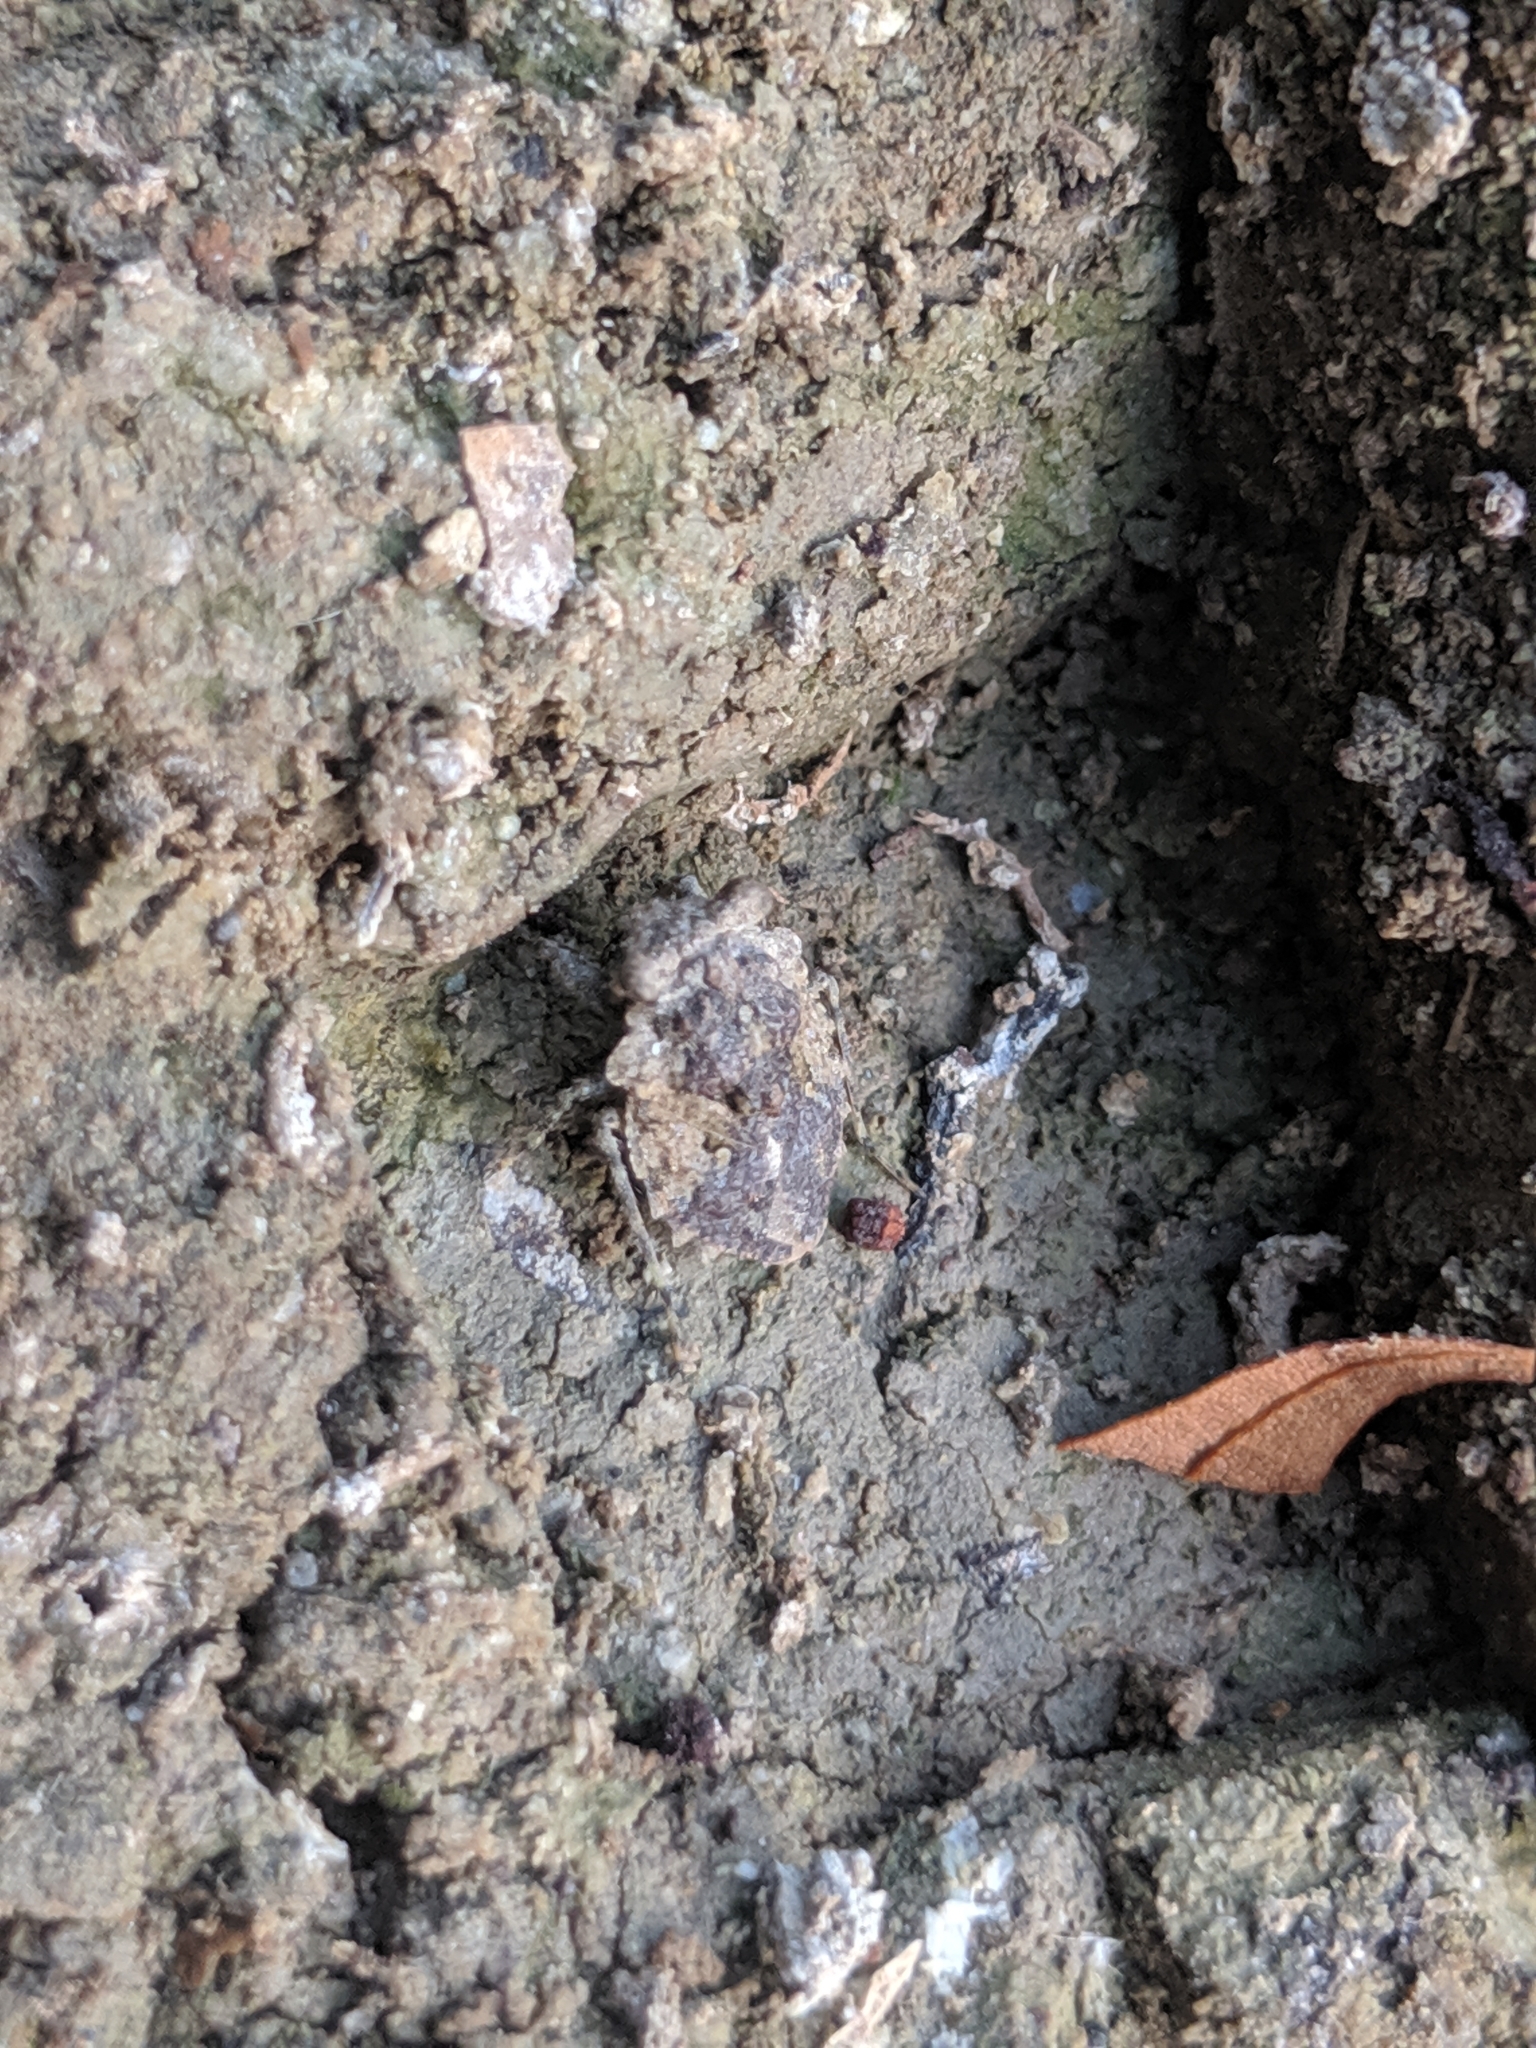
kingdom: Animalia
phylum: Arthropoda
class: Insecta
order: Hemiptera
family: Gelastocoridae
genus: Gelastocoris
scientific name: Gelastocoris oculatus
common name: Toad bug
